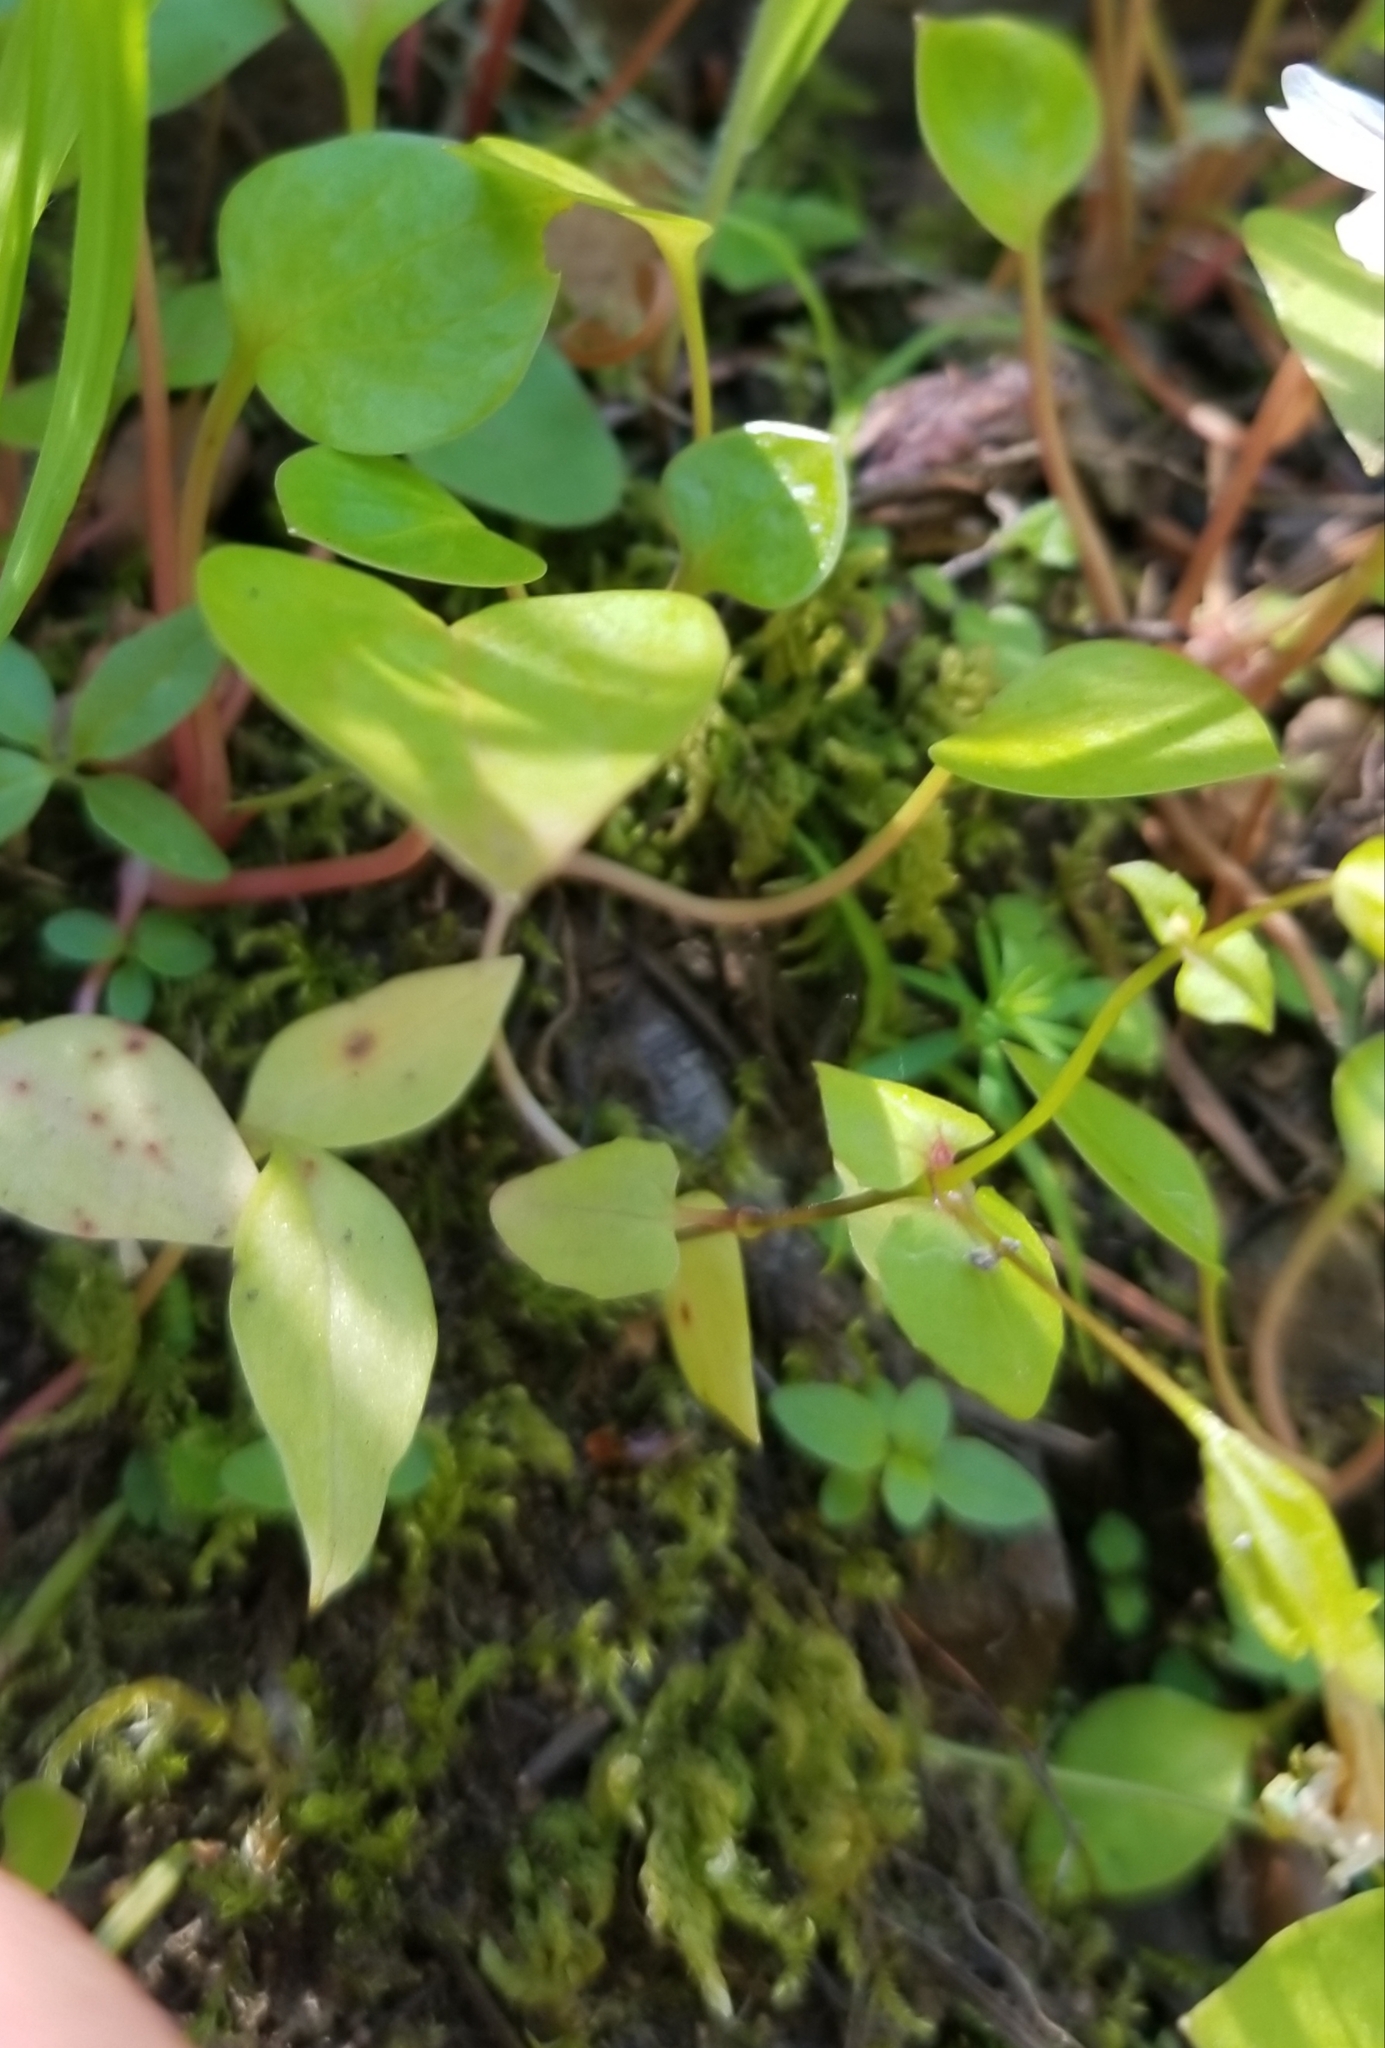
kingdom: Plantae
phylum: Tracheophyta
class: Magnoliopsida
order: Lamiales
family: Phrymaceae
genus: Erythranthe
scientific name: Erythranthe microphylla
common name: Bentham's monkeyflower
